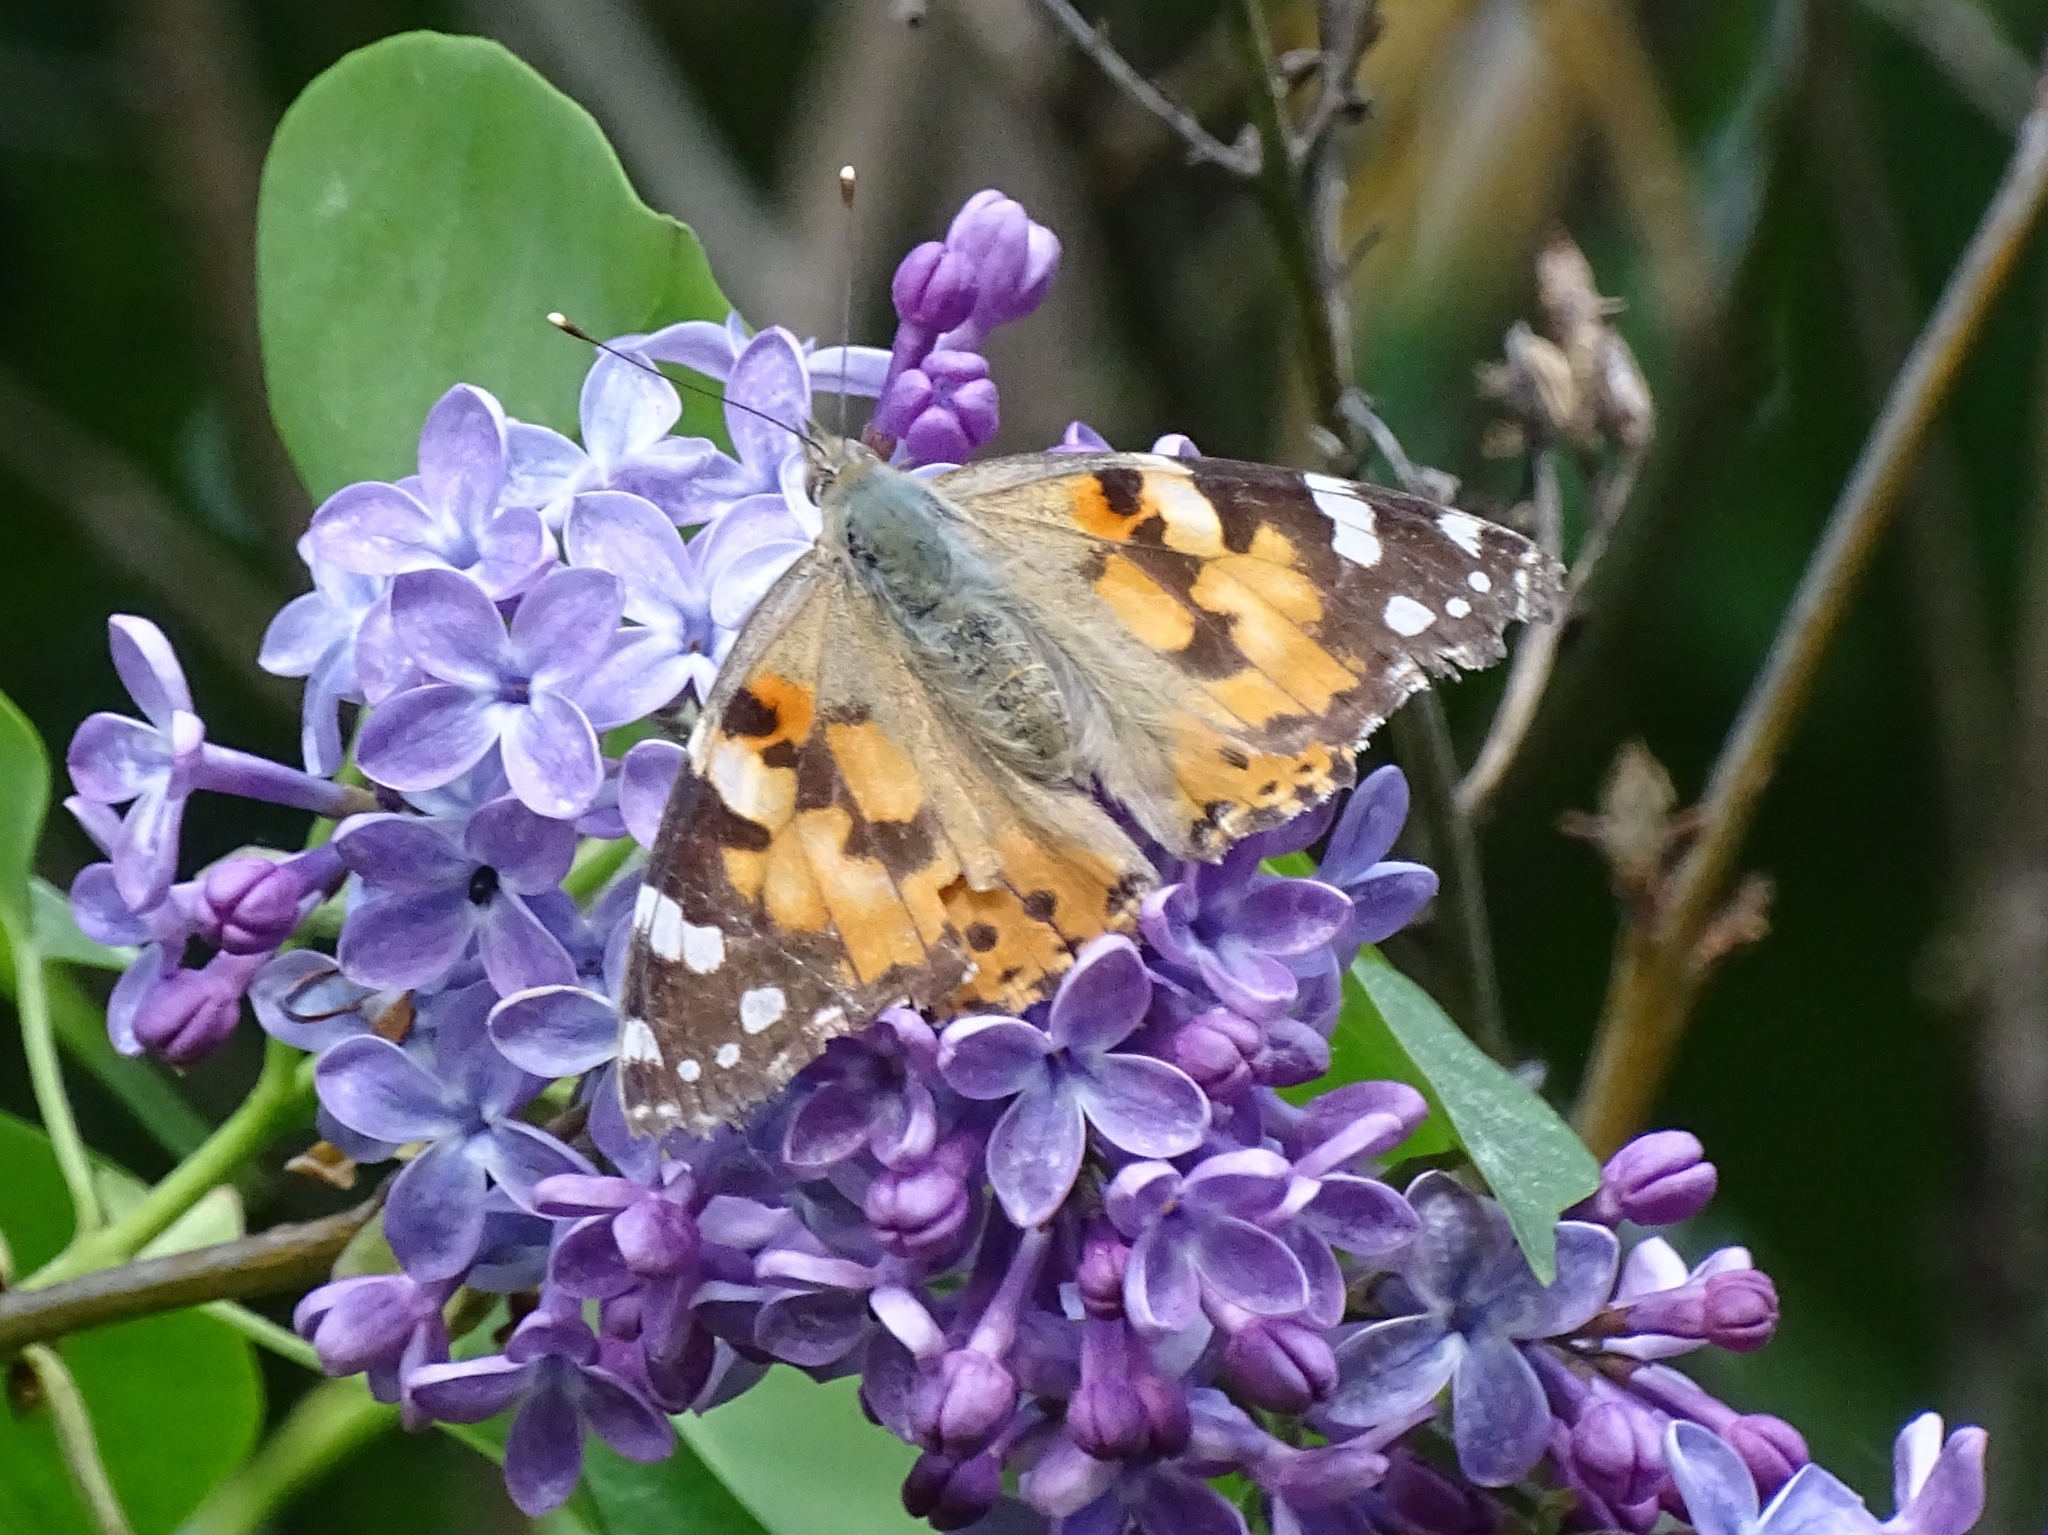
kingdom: Animalia
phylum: Arthropoda
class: Insecta
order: Lepidoptera
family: Nymphalidae
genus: Vanessa
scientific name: Vanessa cardui
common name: Painted lady
